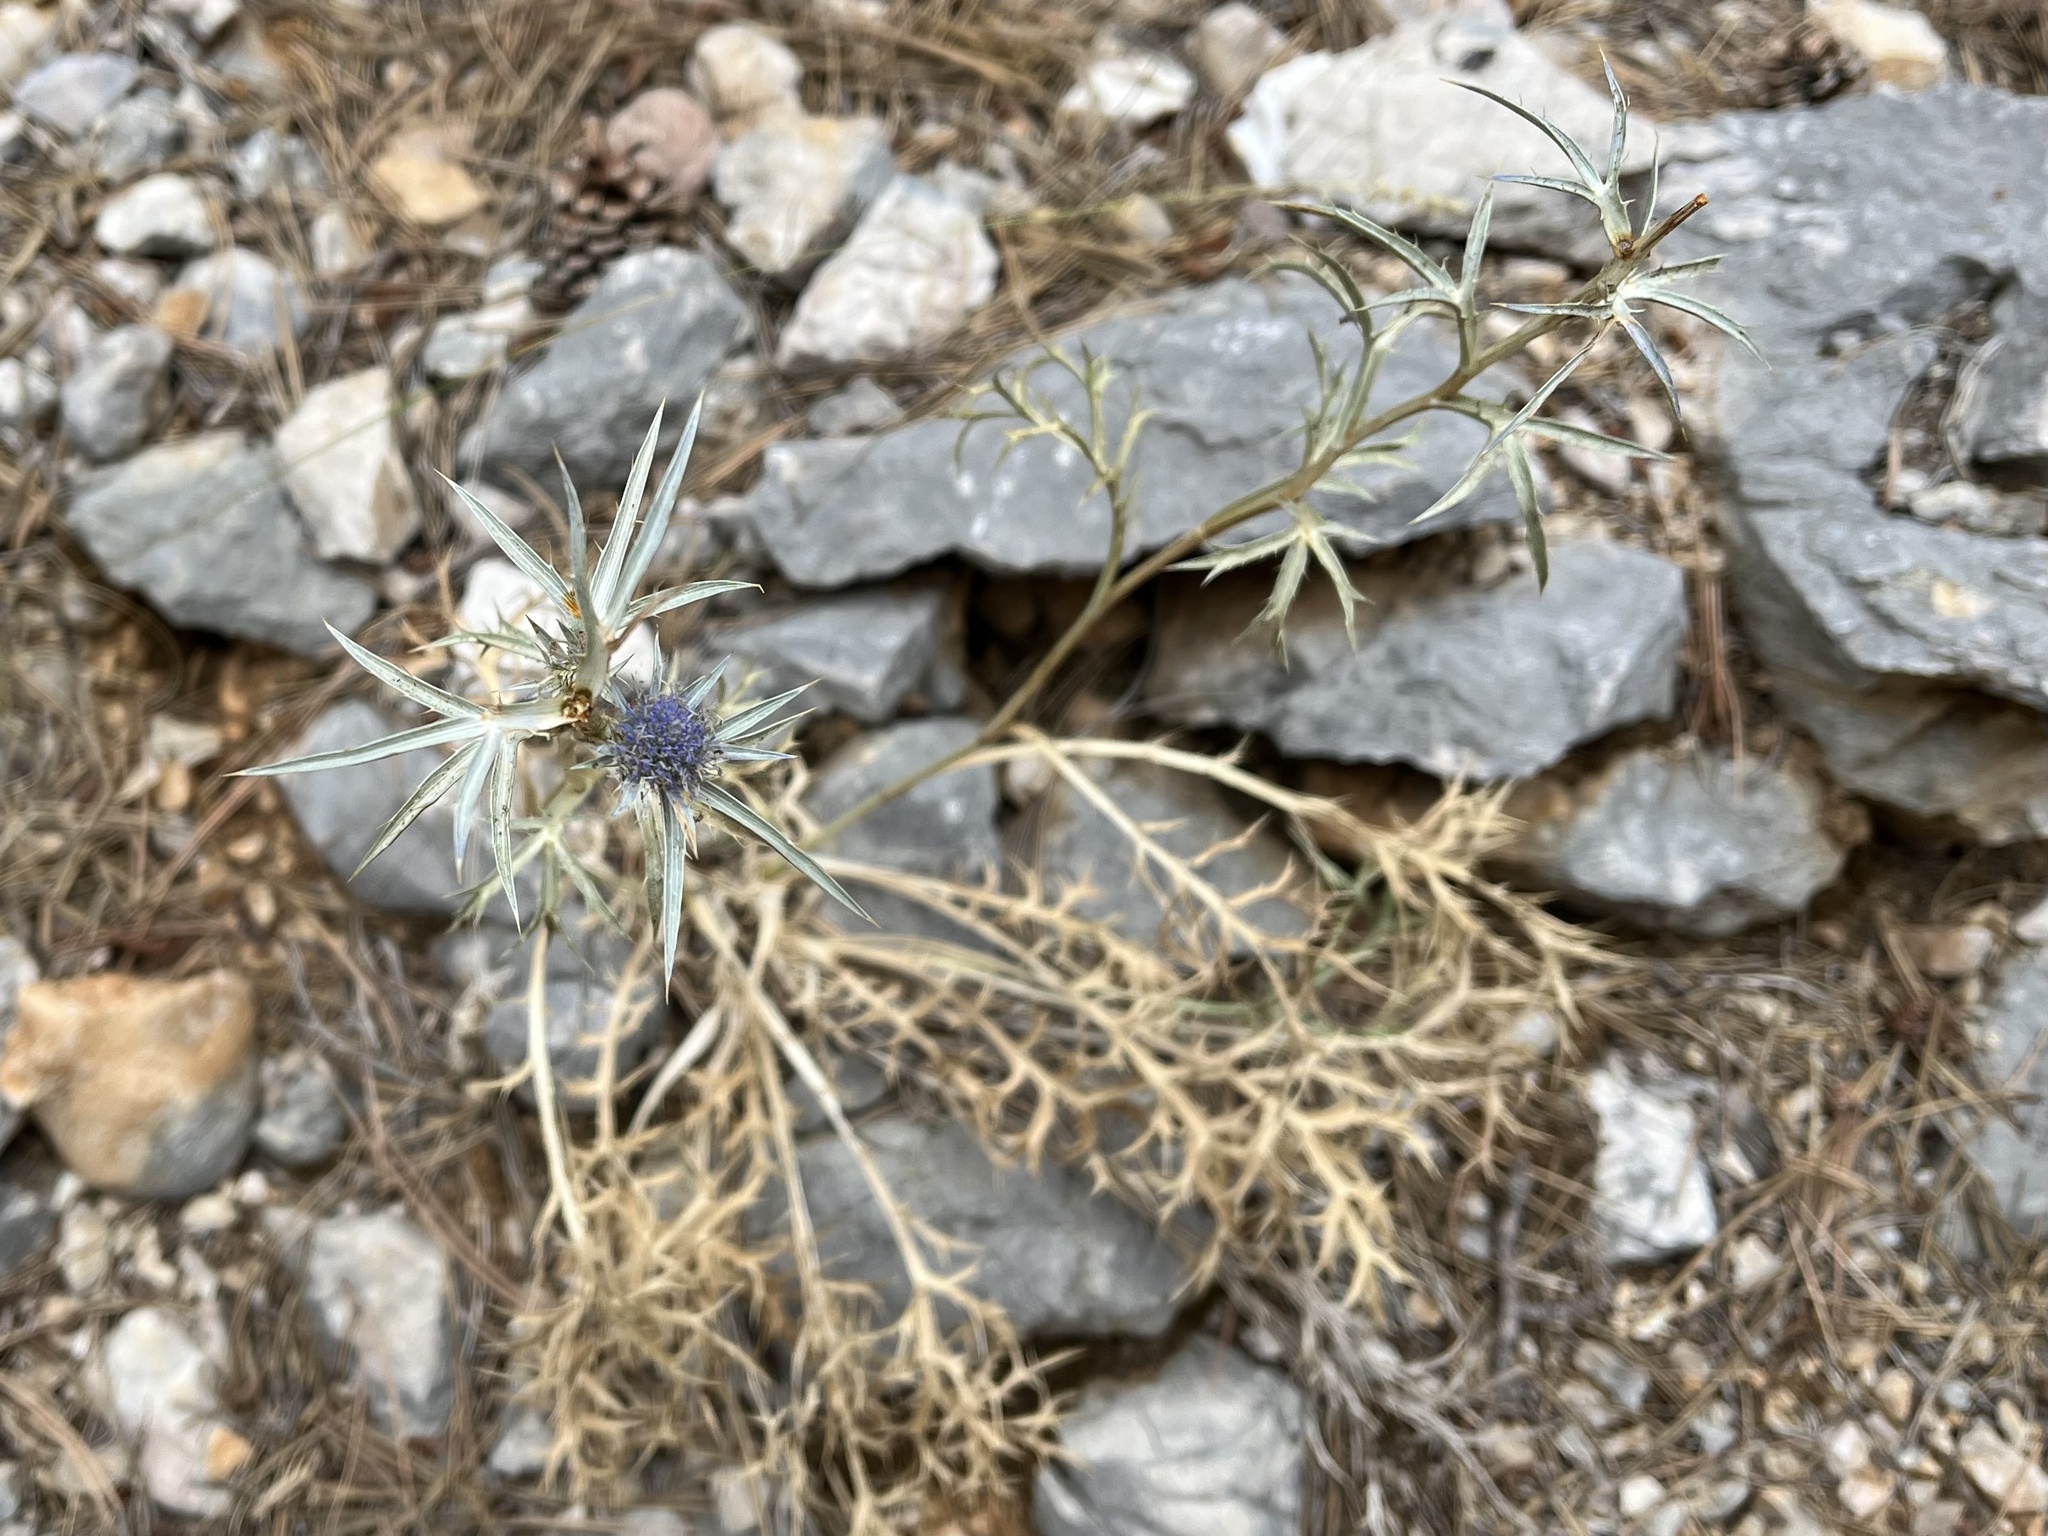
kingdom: Plantae
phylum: Tracheophyta
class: Magnoliopsida
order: Apiales
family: Apiaceae
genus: Eryngium
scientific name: Eryngium amethystinum
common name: Amethyst eryngo
